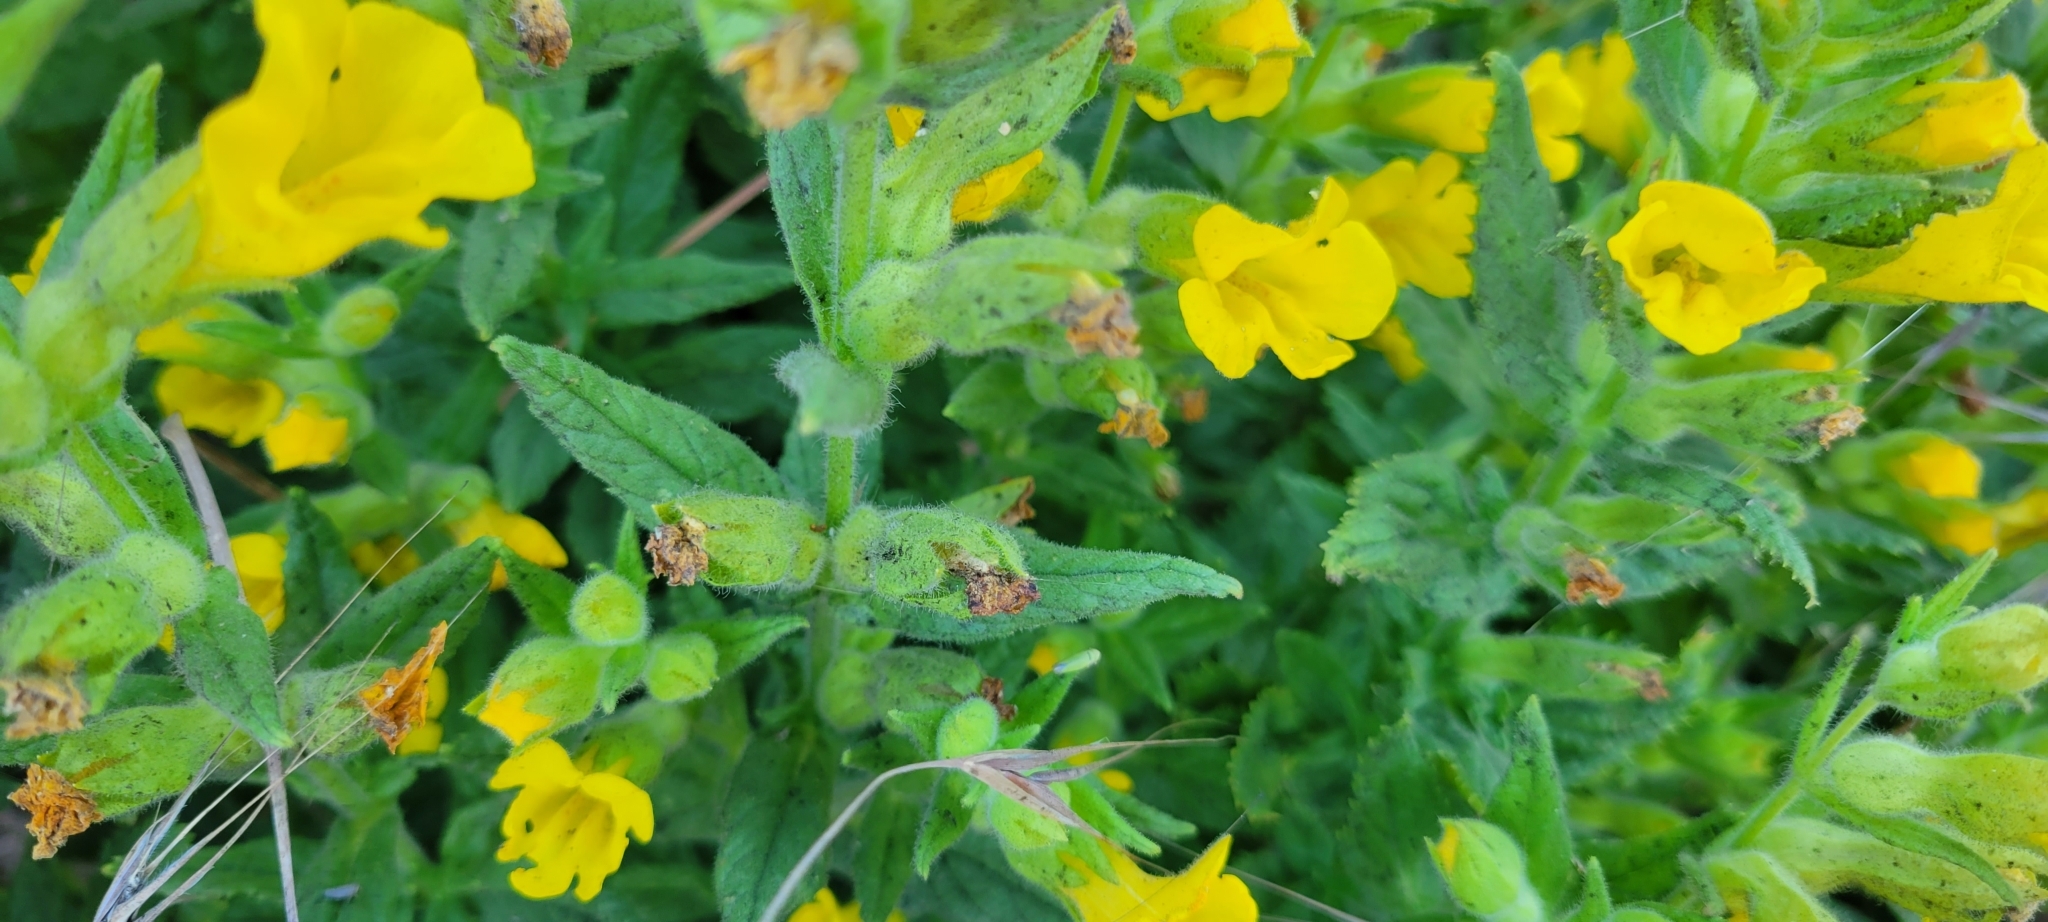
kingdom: Plantae
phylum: Tracheophyta
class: Magnoliopsida
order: Lamiales
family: Phrymaceae
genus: Diplacus
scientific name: Diplacus clevelandii
